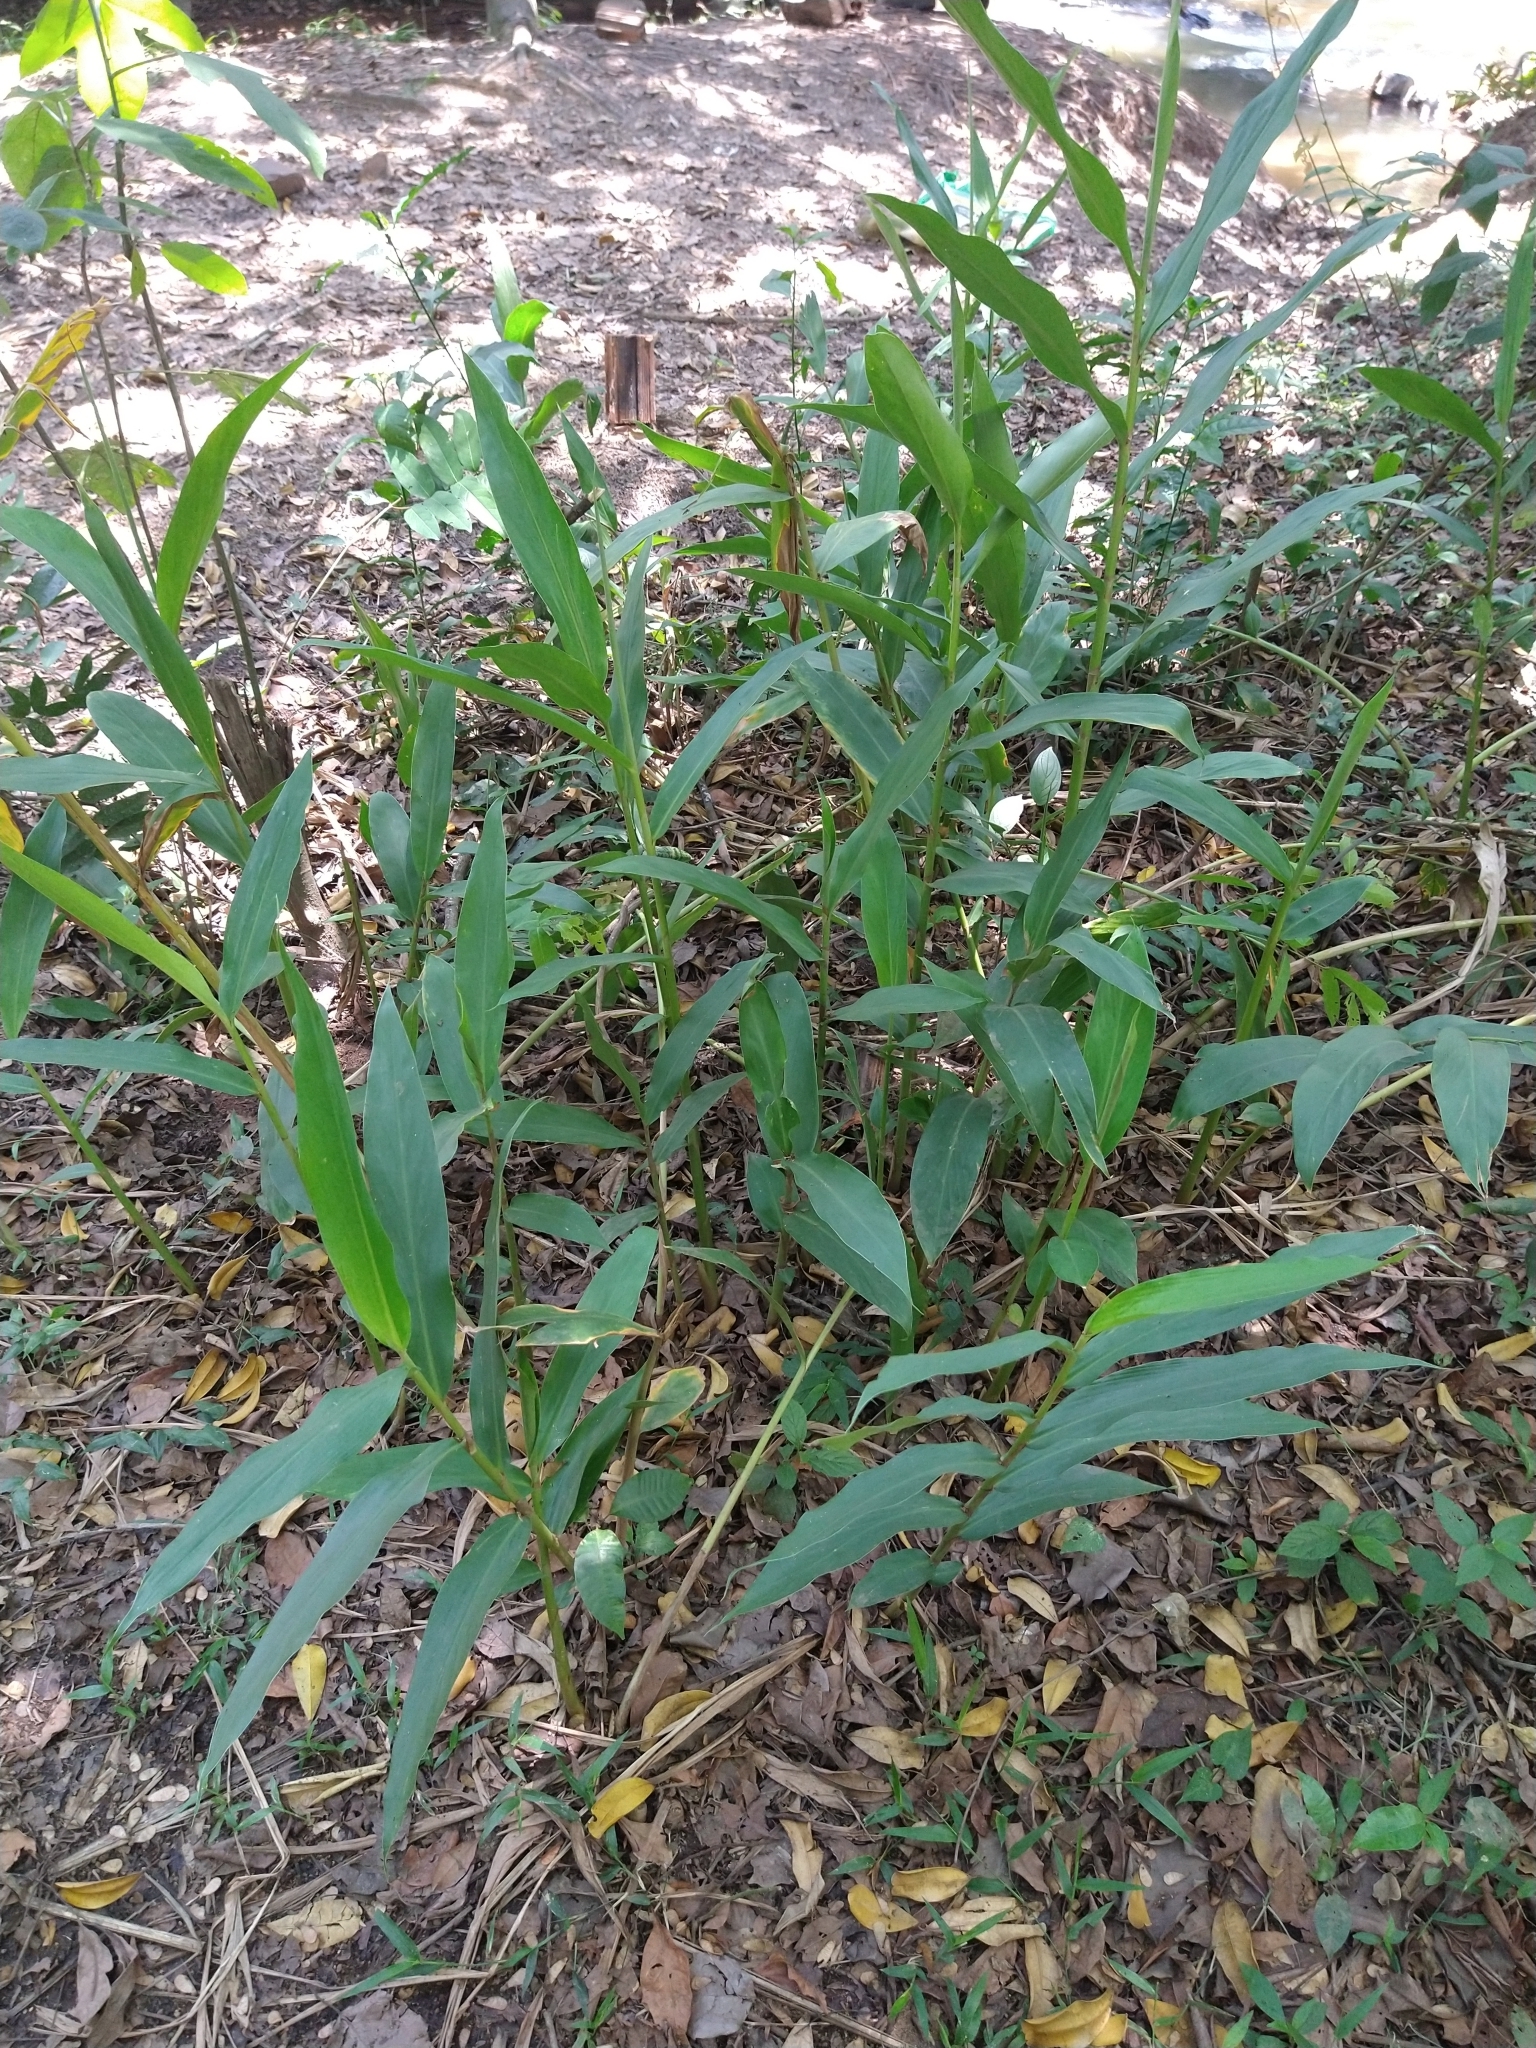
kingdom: Plantae
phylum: Tracheophyta
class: Liliopsida
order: Zingiberales
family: Zingiberaceae
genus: Hedychium
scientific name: Hedychium coronarium
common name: White garland-lily
